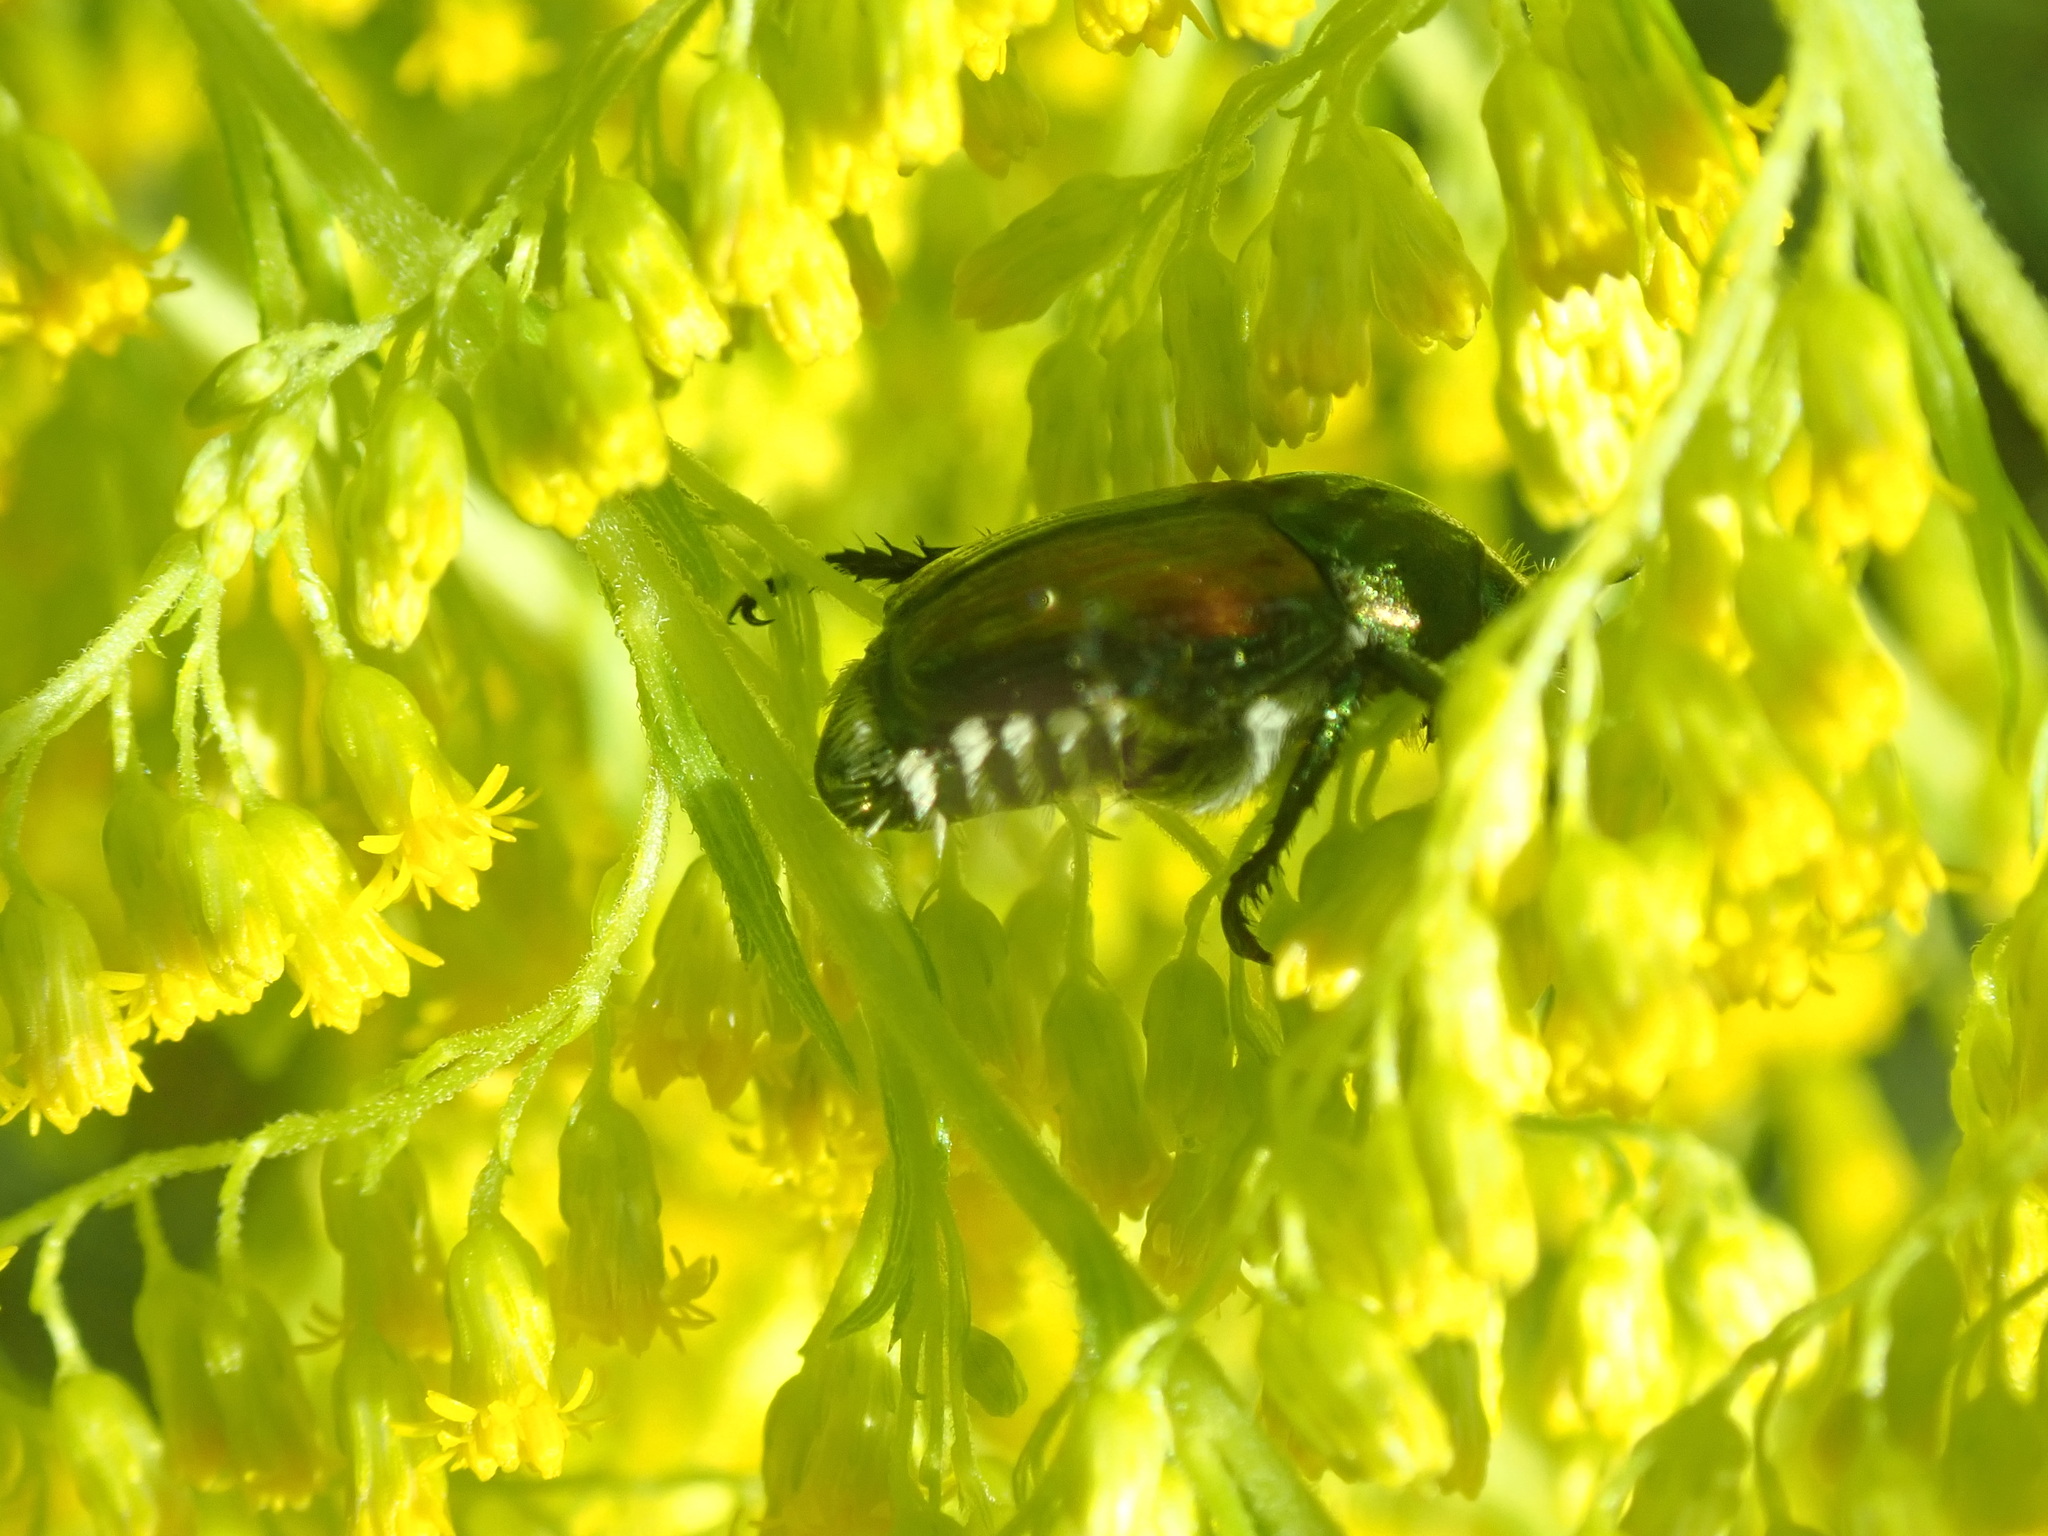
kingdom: Animalia
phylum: Arthropoda
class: Insecta
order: Coleoptera
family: Scarabaeidae
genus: Popillia
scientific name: Popillia japonica
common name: Japanese beetle
